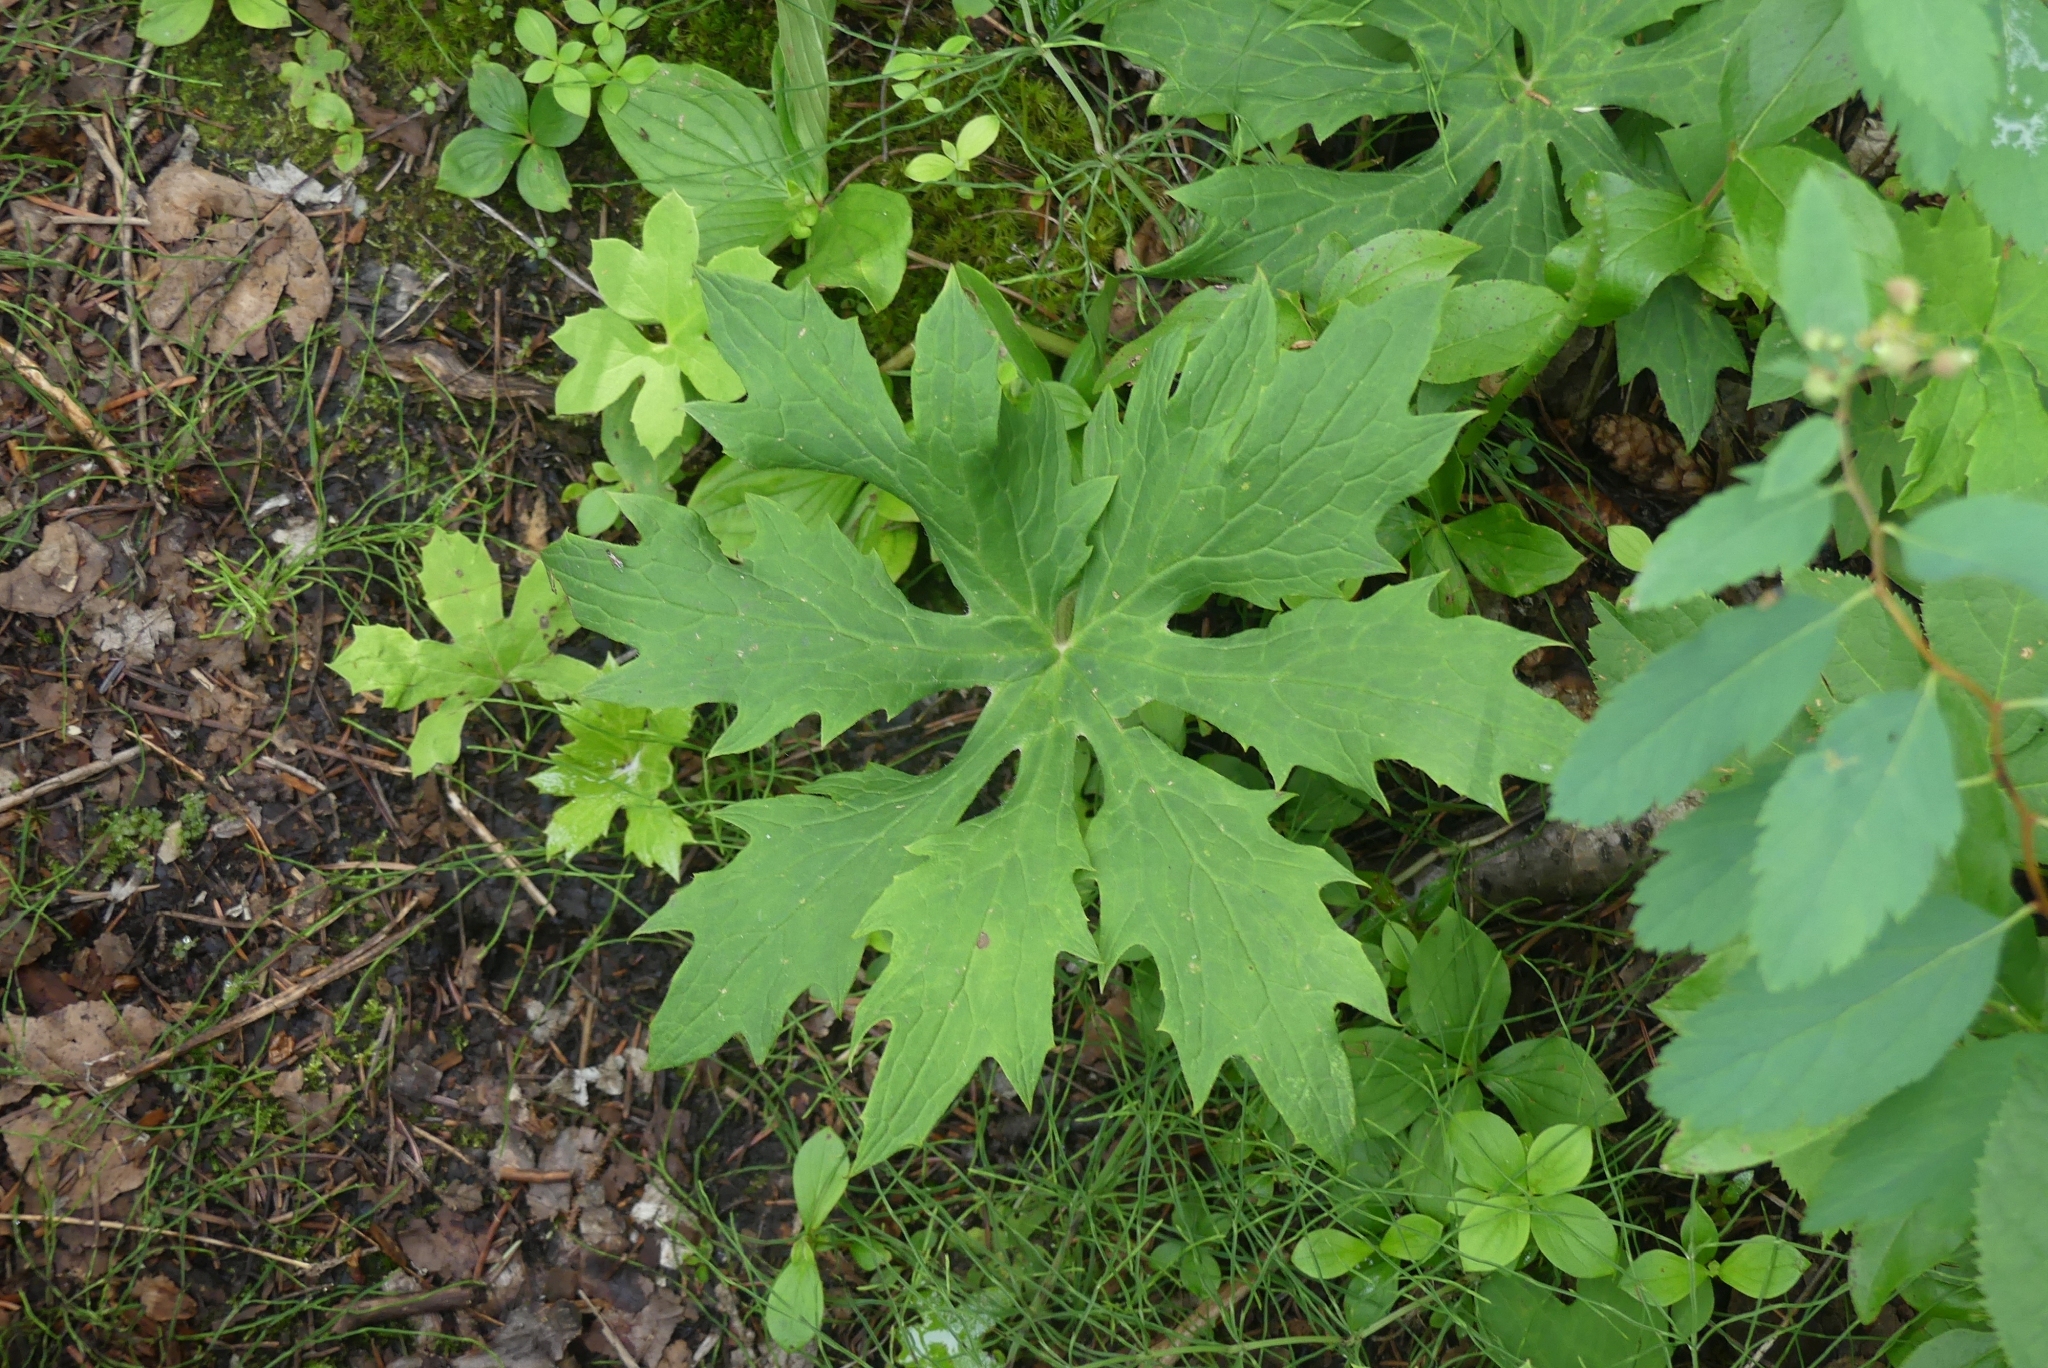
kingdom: Plantae
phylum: Tracheophyta
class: Magnoliopsida
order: Asterales
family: Asteraceae
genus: Petasites
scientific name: Petasites frigidus
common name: Arctic butterbur
